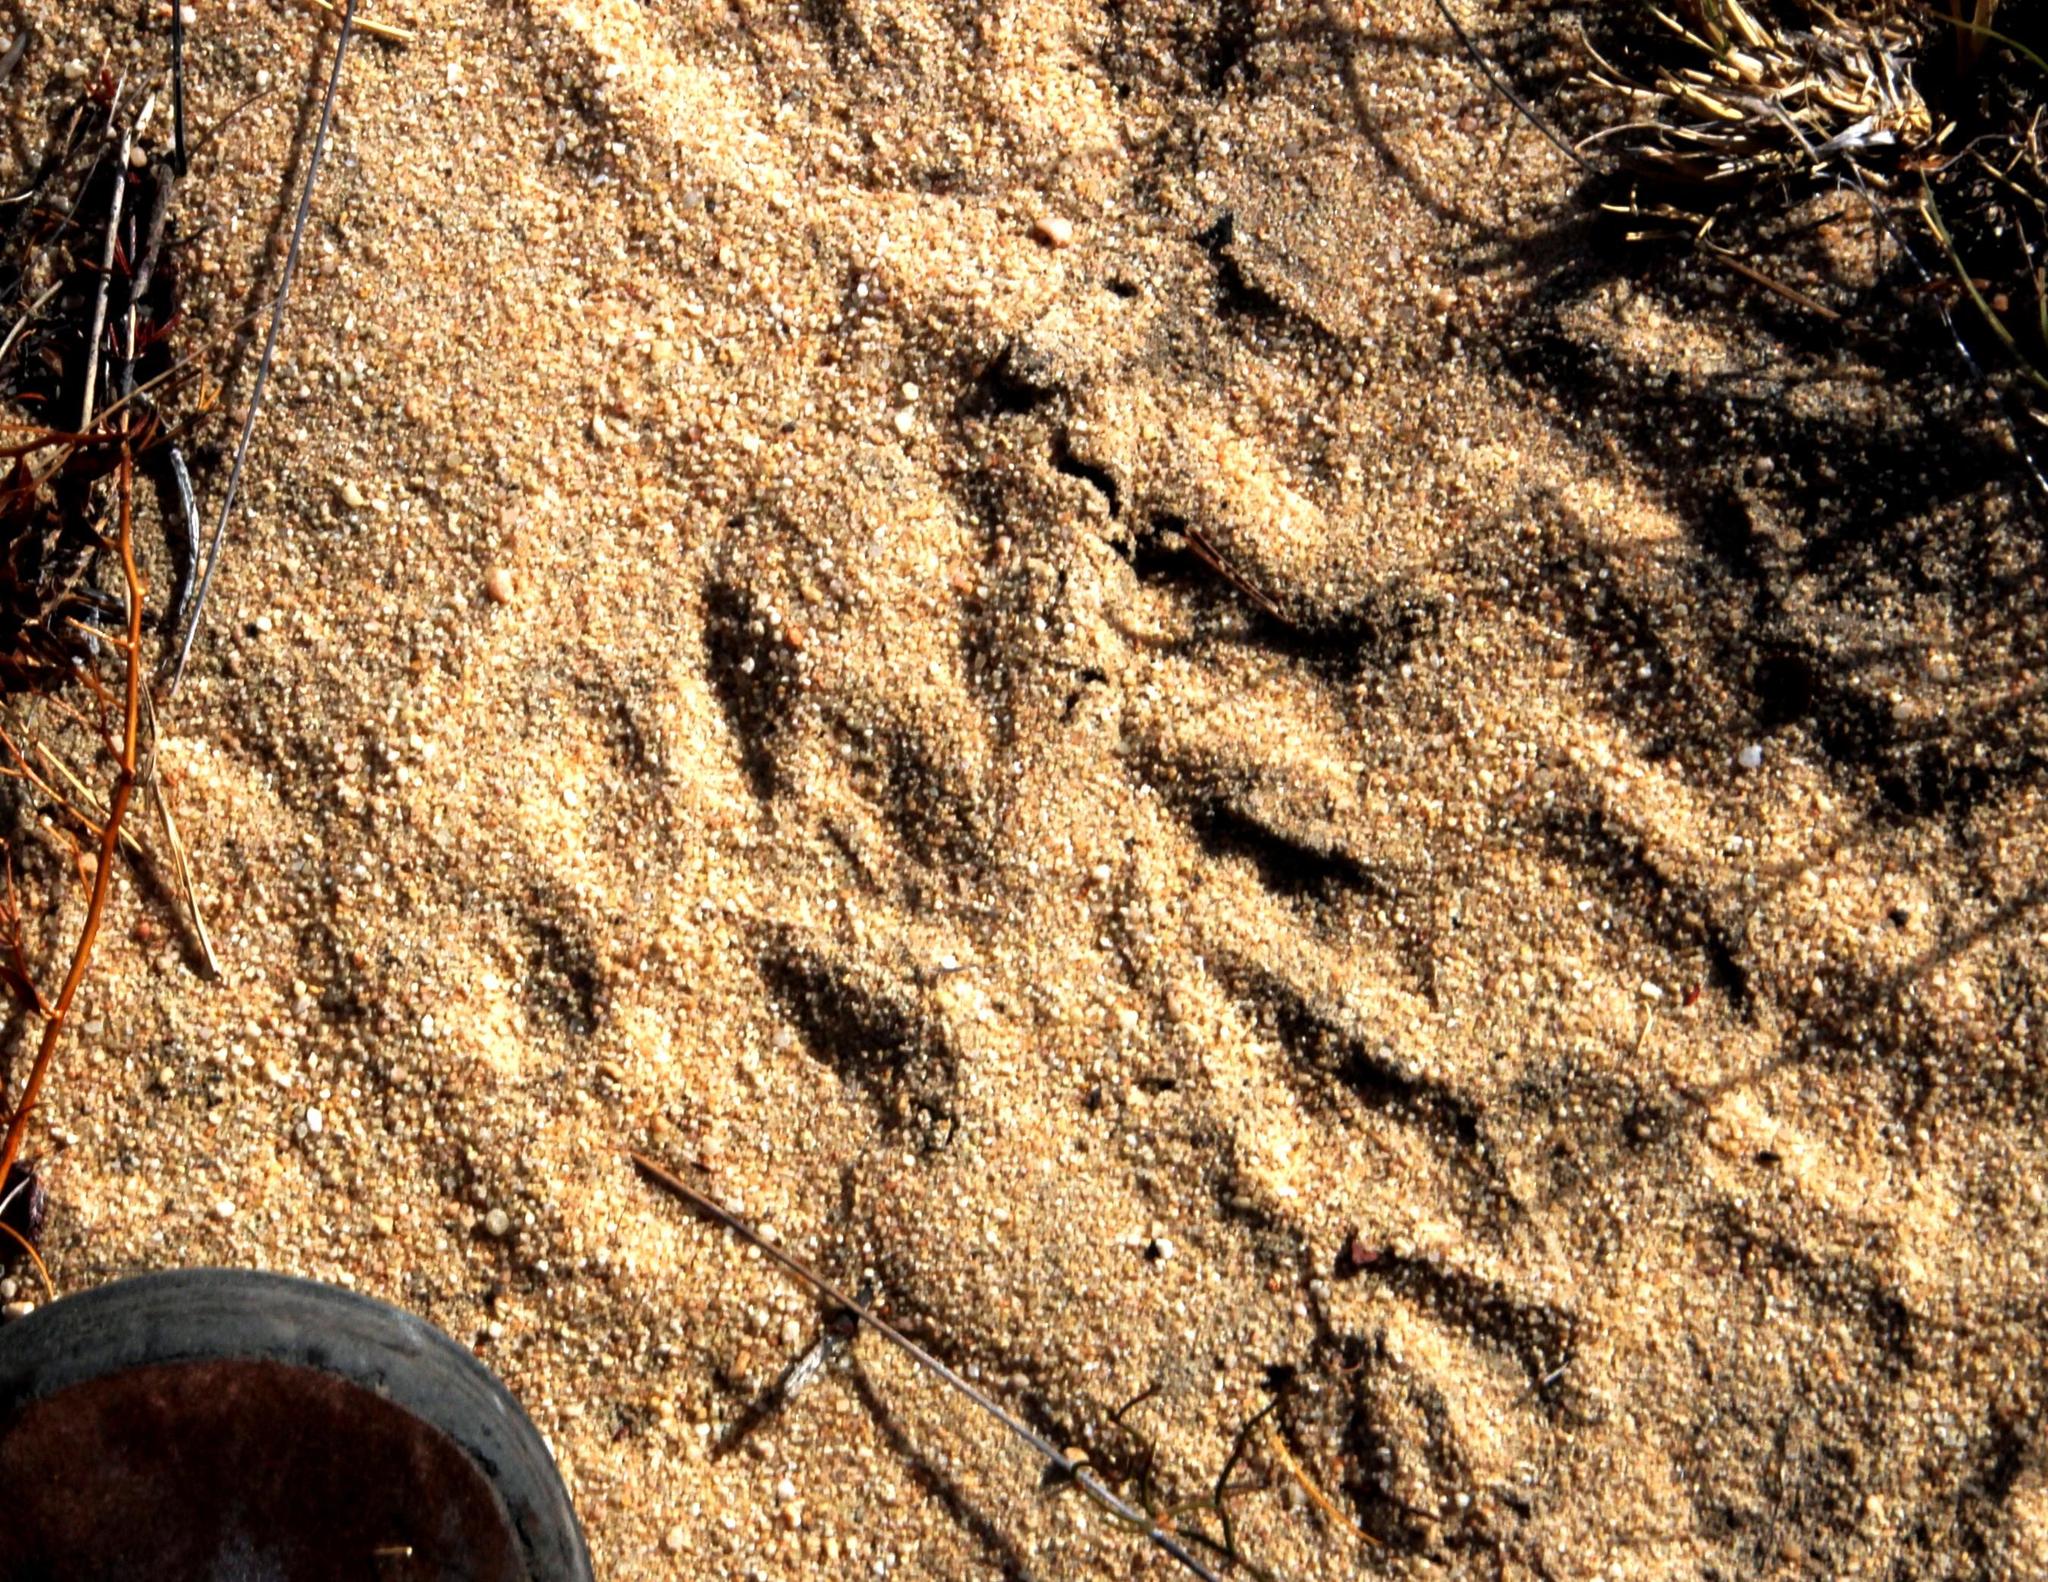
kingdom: Animalia
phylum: Chordata
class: Mammalia
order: Carnivora
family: Felidae
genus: Caracal
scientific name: Caracal caracal
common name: Caracal
